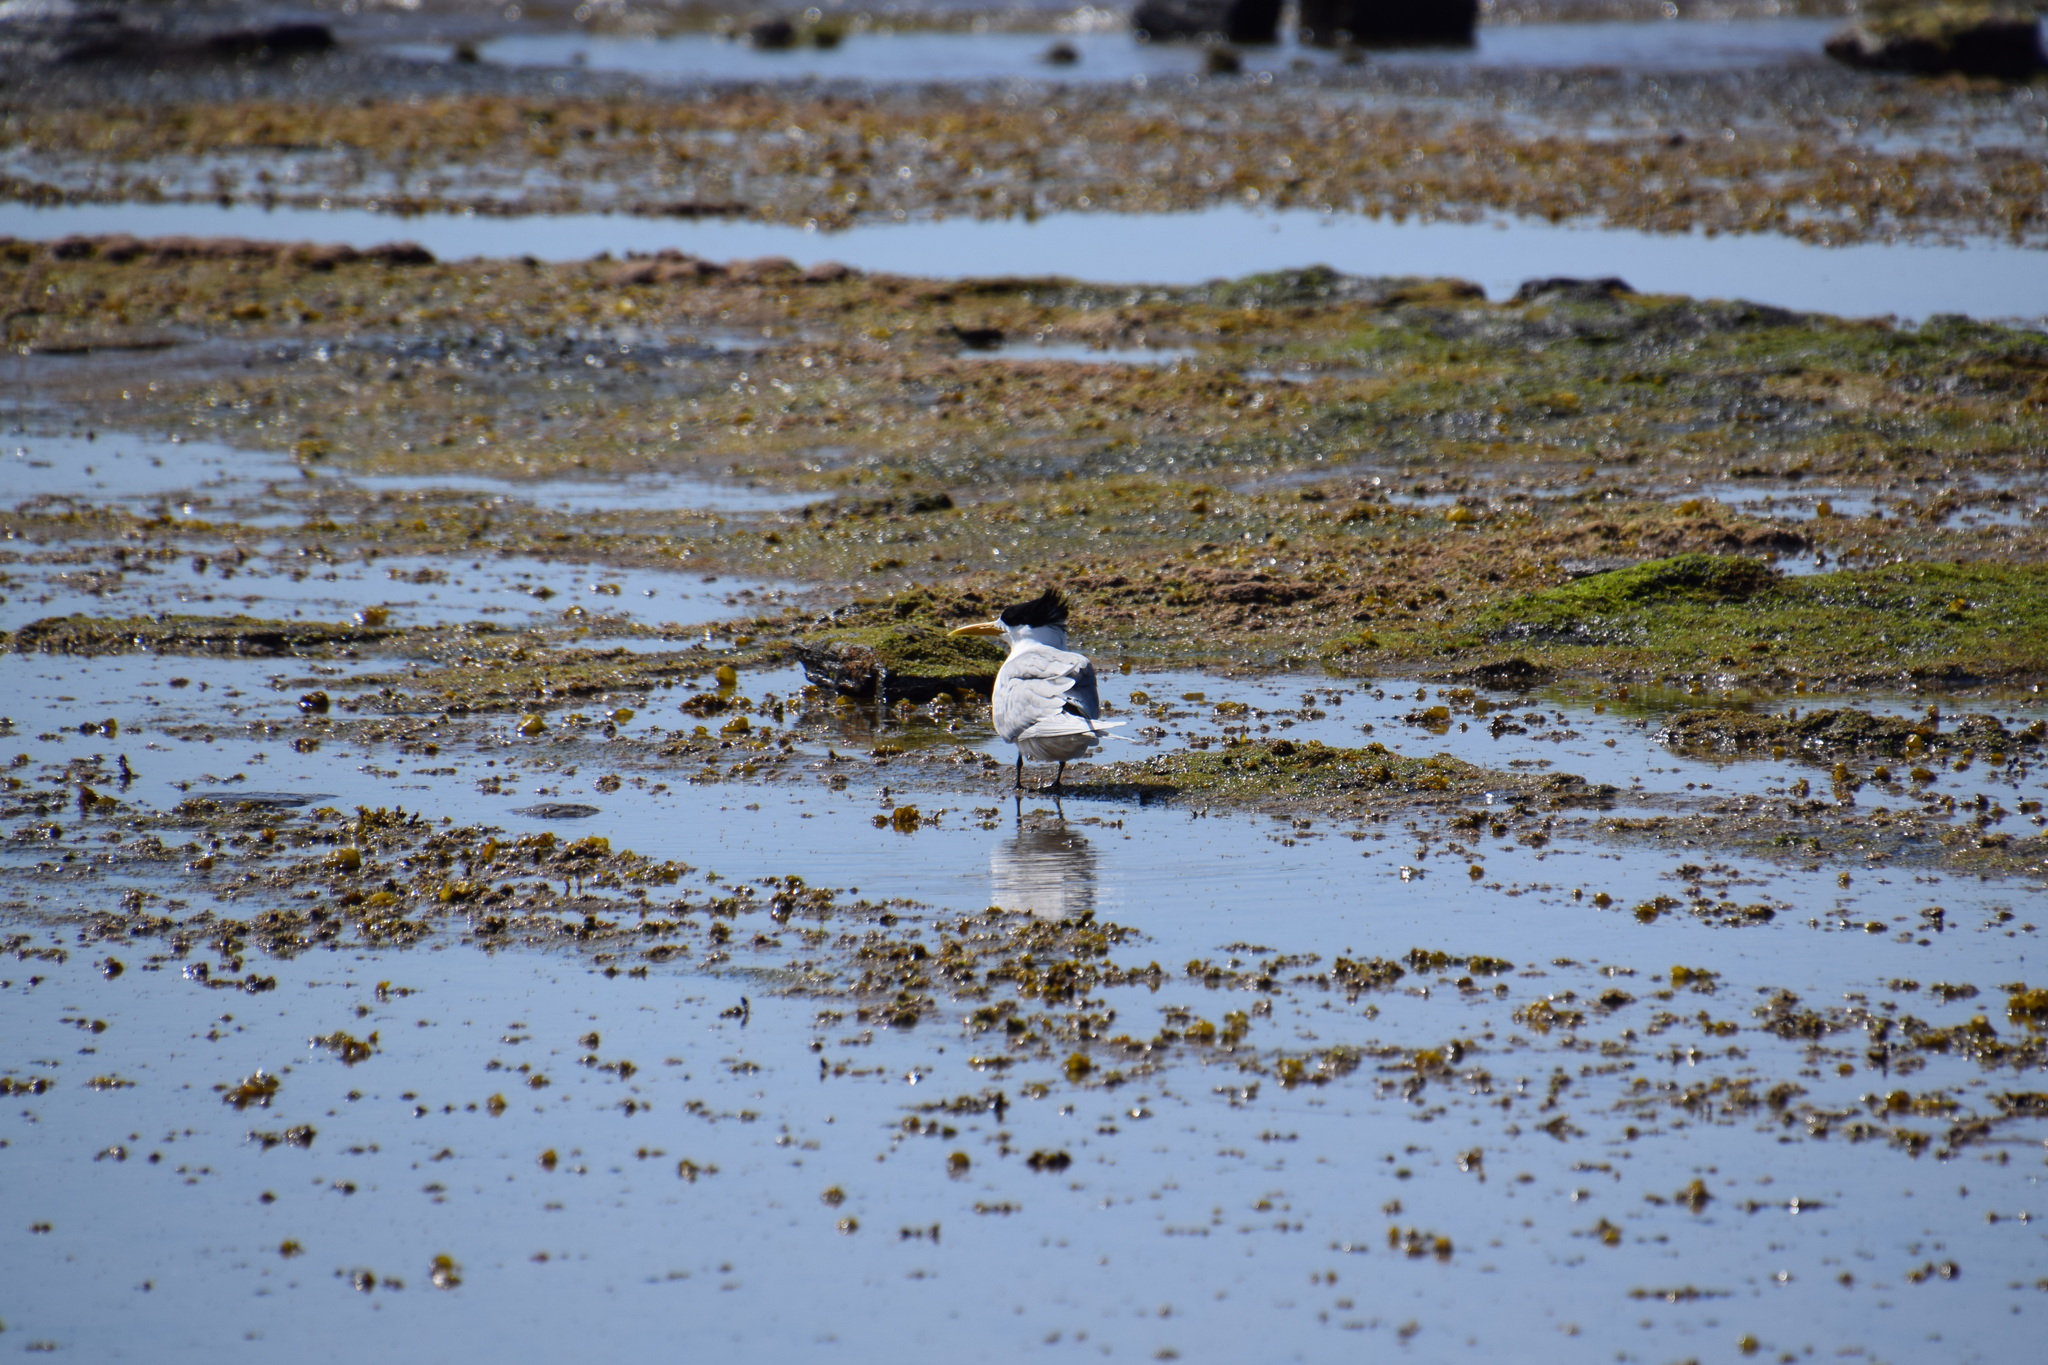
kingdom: Animalia
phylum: Chordata
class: Aves
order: Charadriiformes
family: Laridae
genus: Thalasseus
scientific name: Thalasseus bergii
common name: Greater crested tern
